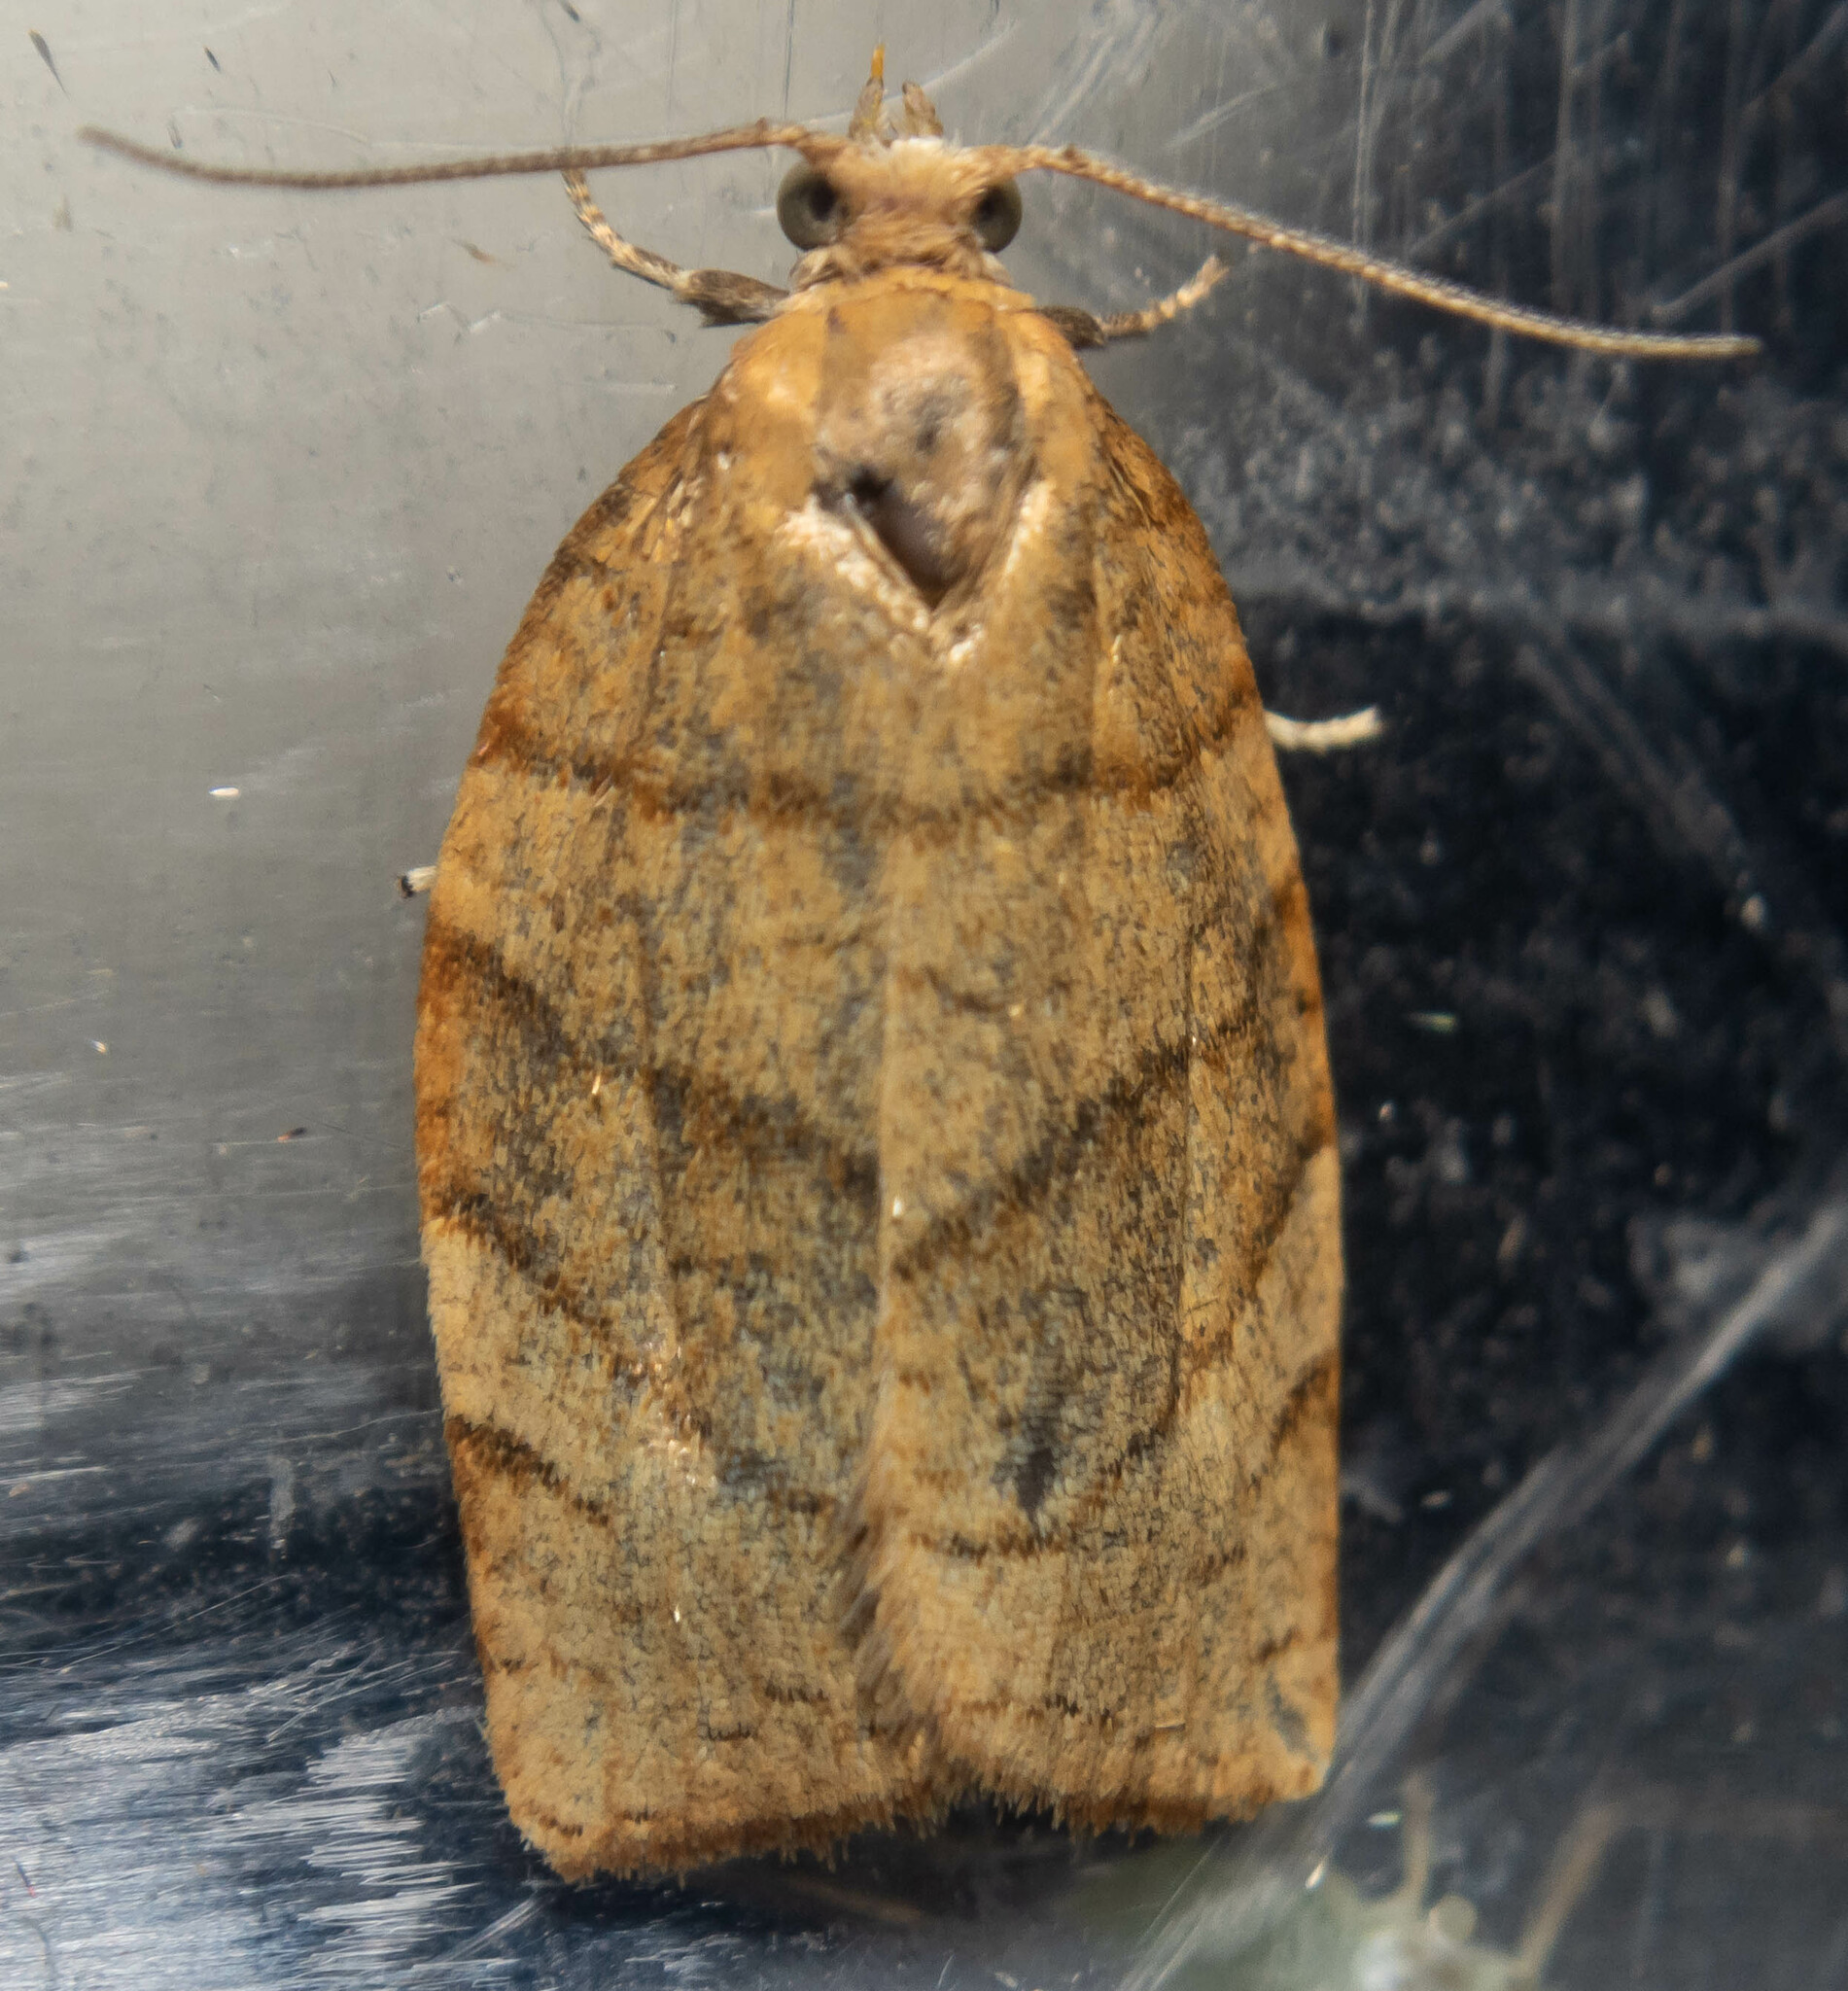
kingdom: Animalia
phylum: Arthropoda
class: Insecta
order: Lepidoptera
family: Tortricidae
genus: Pandemis
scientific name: Pandemis cerasana
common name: Barred fruit-tree tortrix
